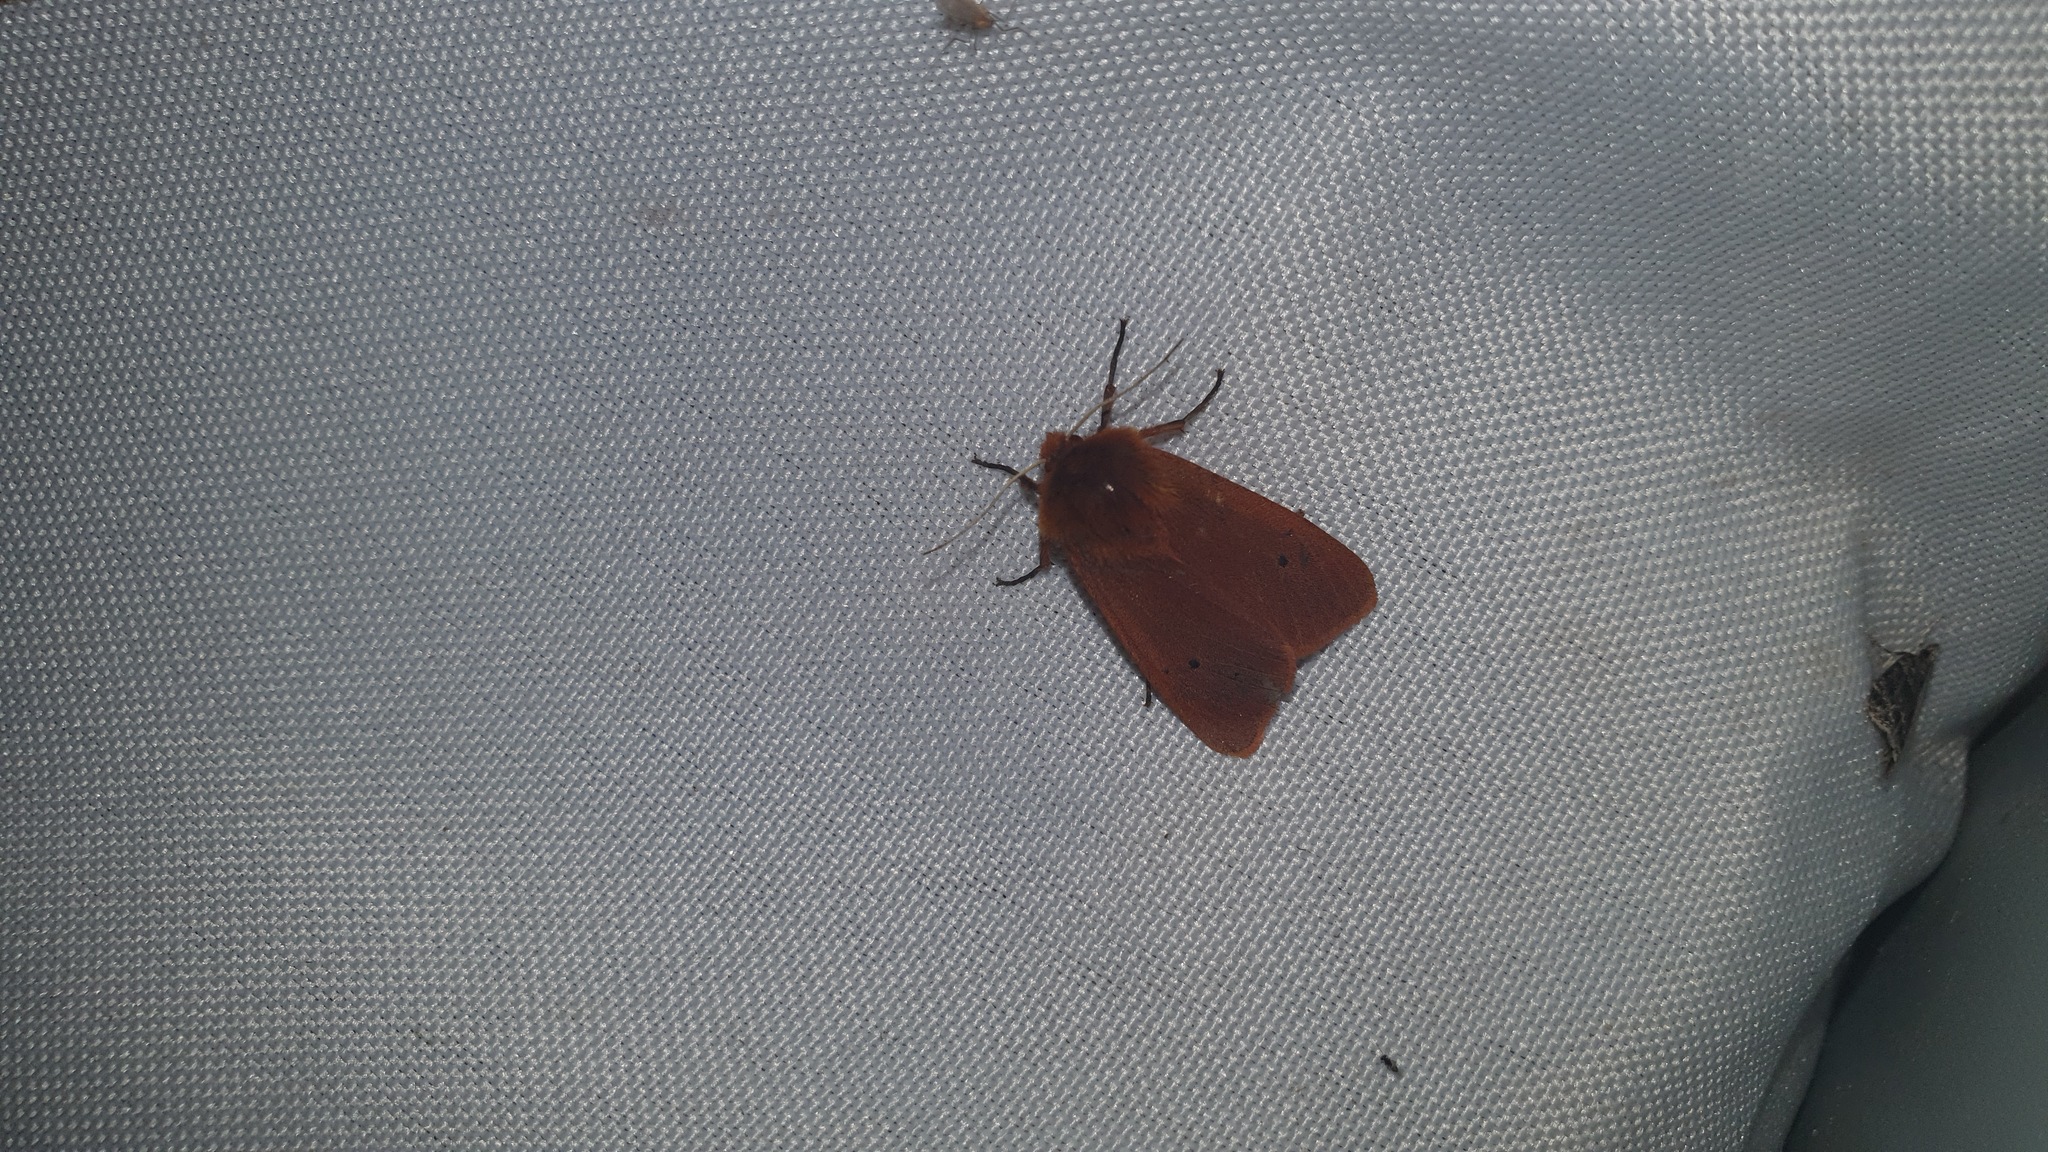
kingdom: Animalia
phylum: Arthropoda
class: Insecta
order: Lepidoptera
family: Erebidae
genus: Phragmatobia
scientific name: Phragmatobia fuliginosa
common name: Ruby tiger
